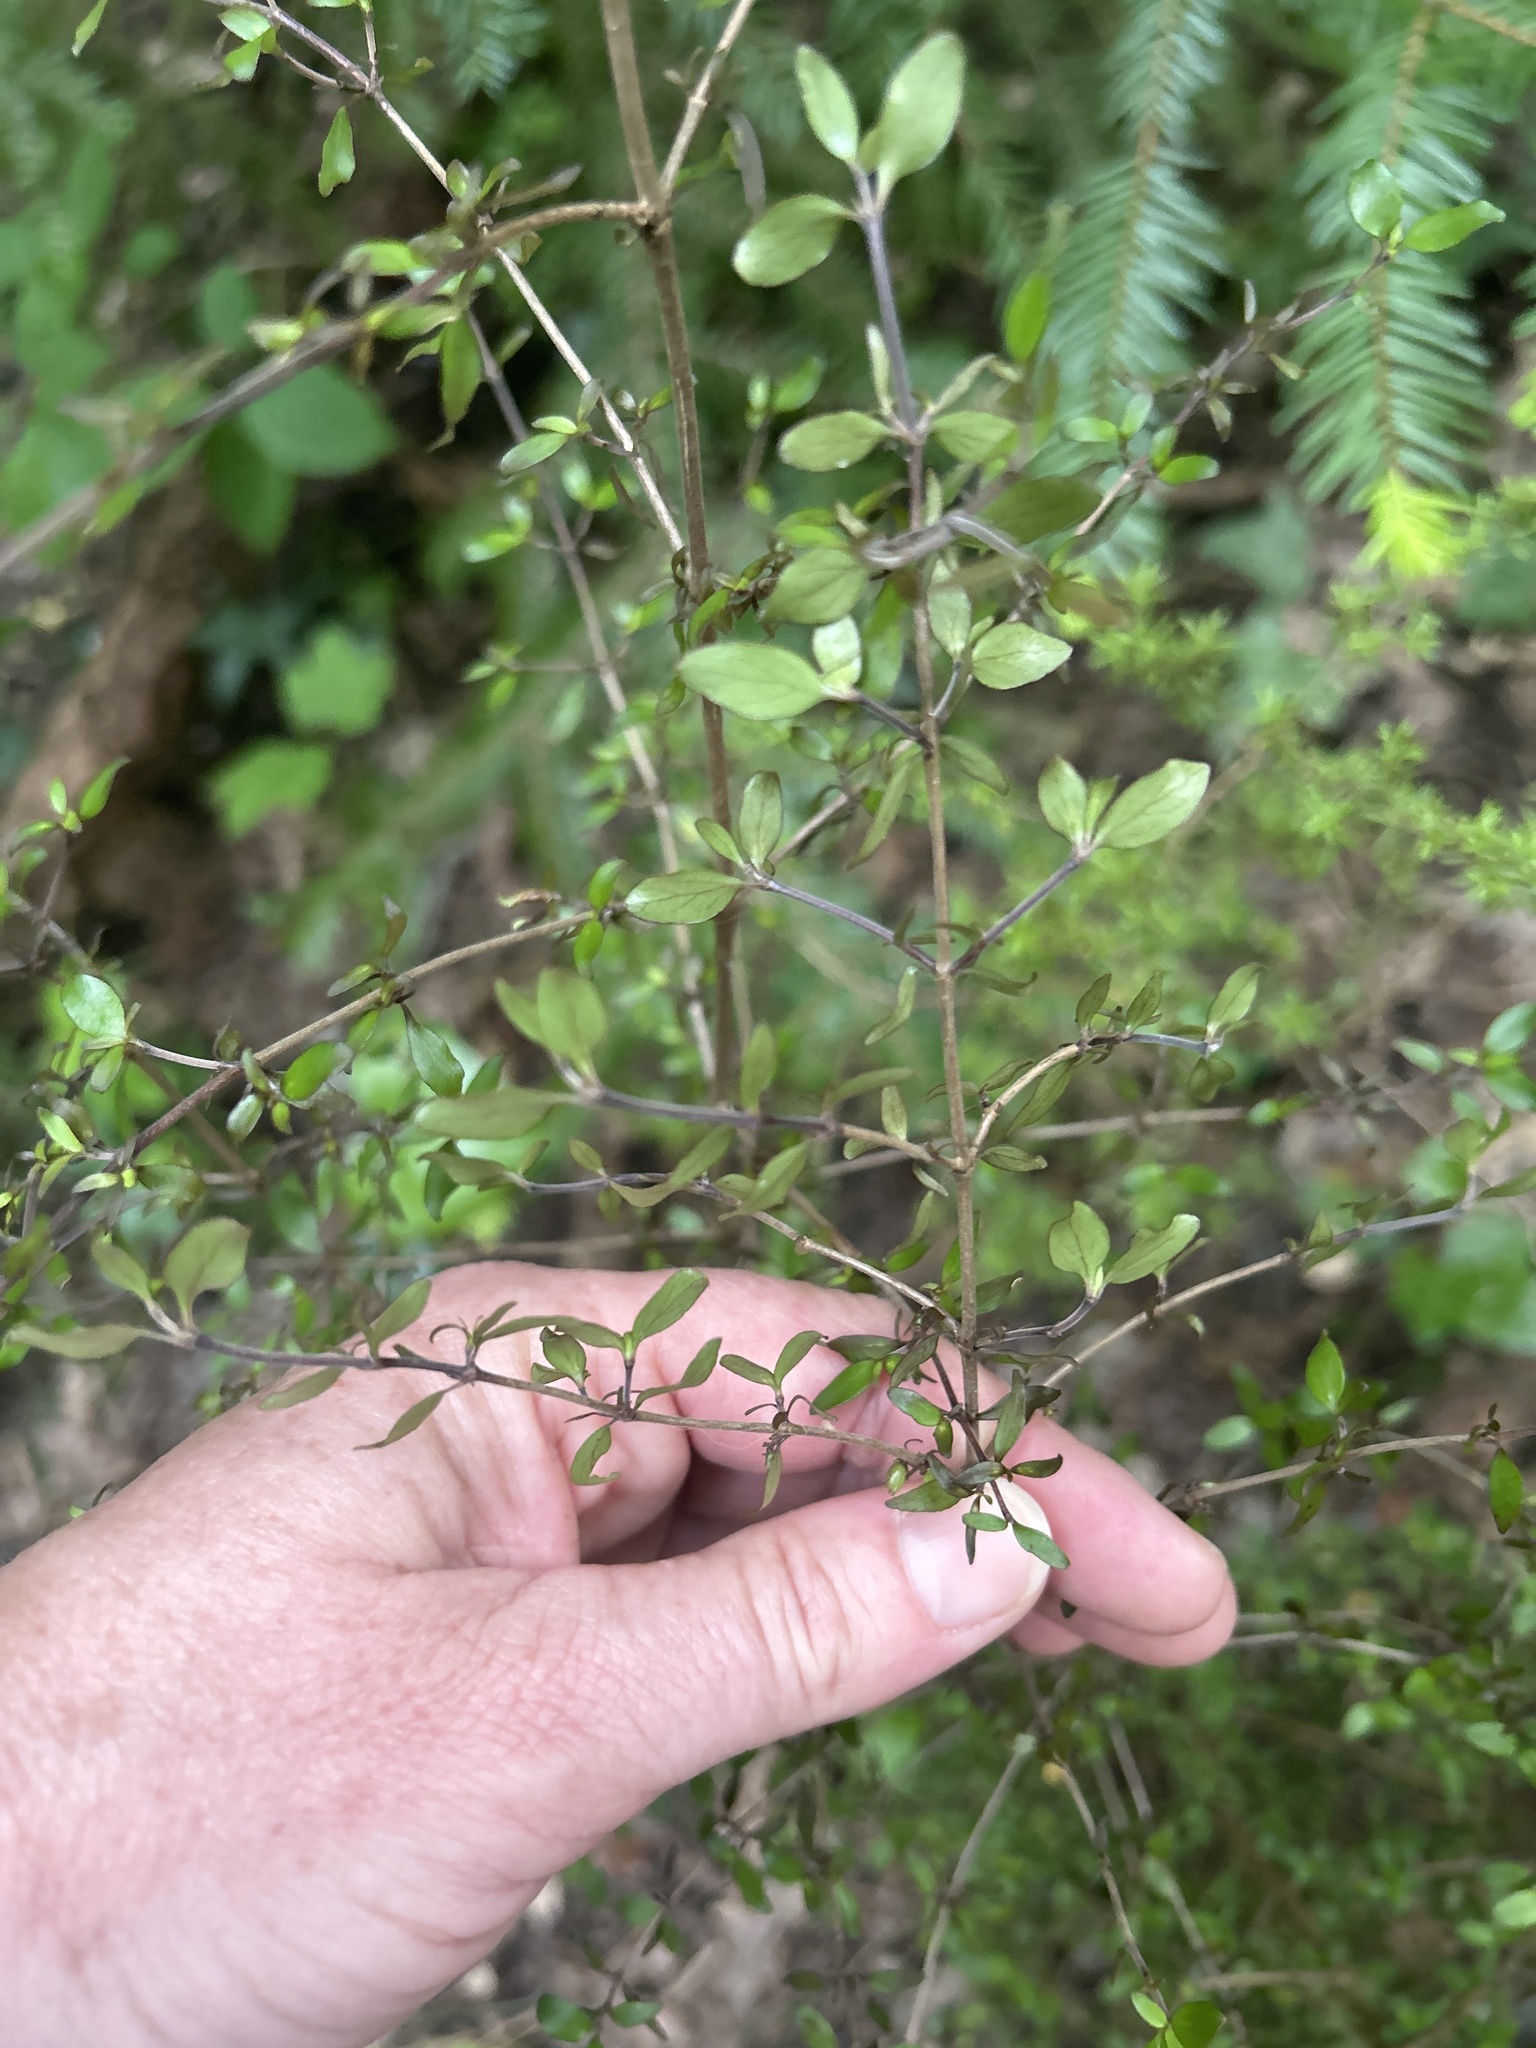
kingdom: Plantae
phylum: Tracheophyta
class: Magnoliopsida
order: Gentianales
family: Rubiaceae
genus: Coprosma
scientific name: Coprosma rhamnoides
